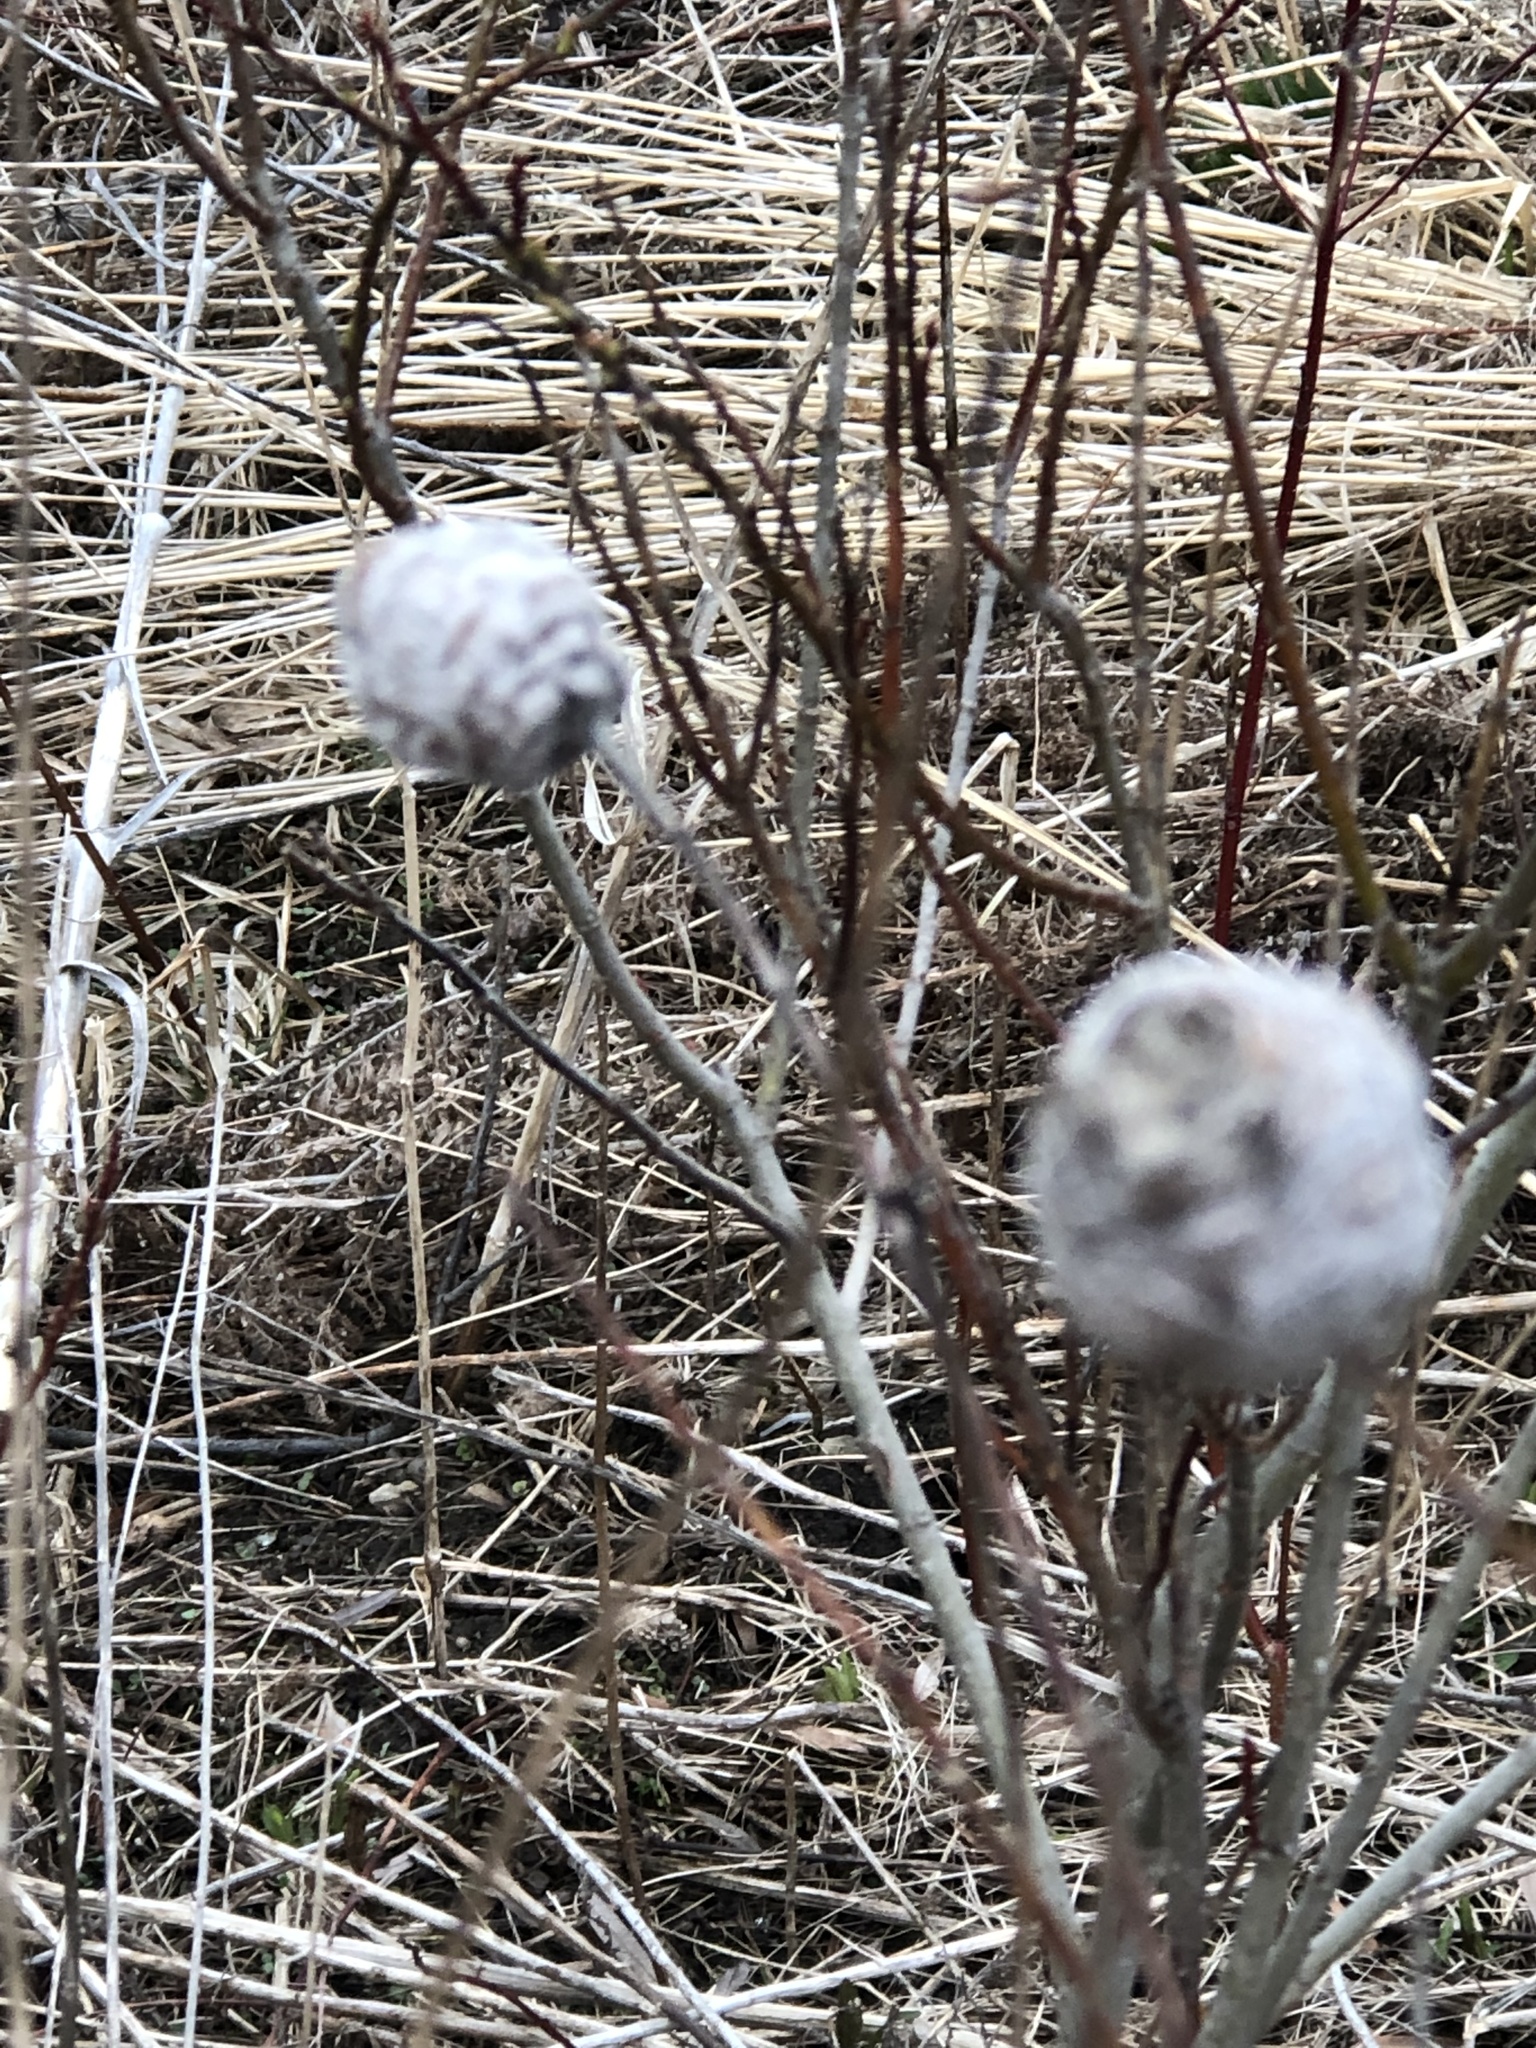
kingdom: Animalia
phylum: Arthropoda
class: Insecta
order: Diptera
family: Cecidomyiidae
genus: Rabdophaga
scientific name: Rabdophaga strobiloides
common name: Willow pinecone gall midge
